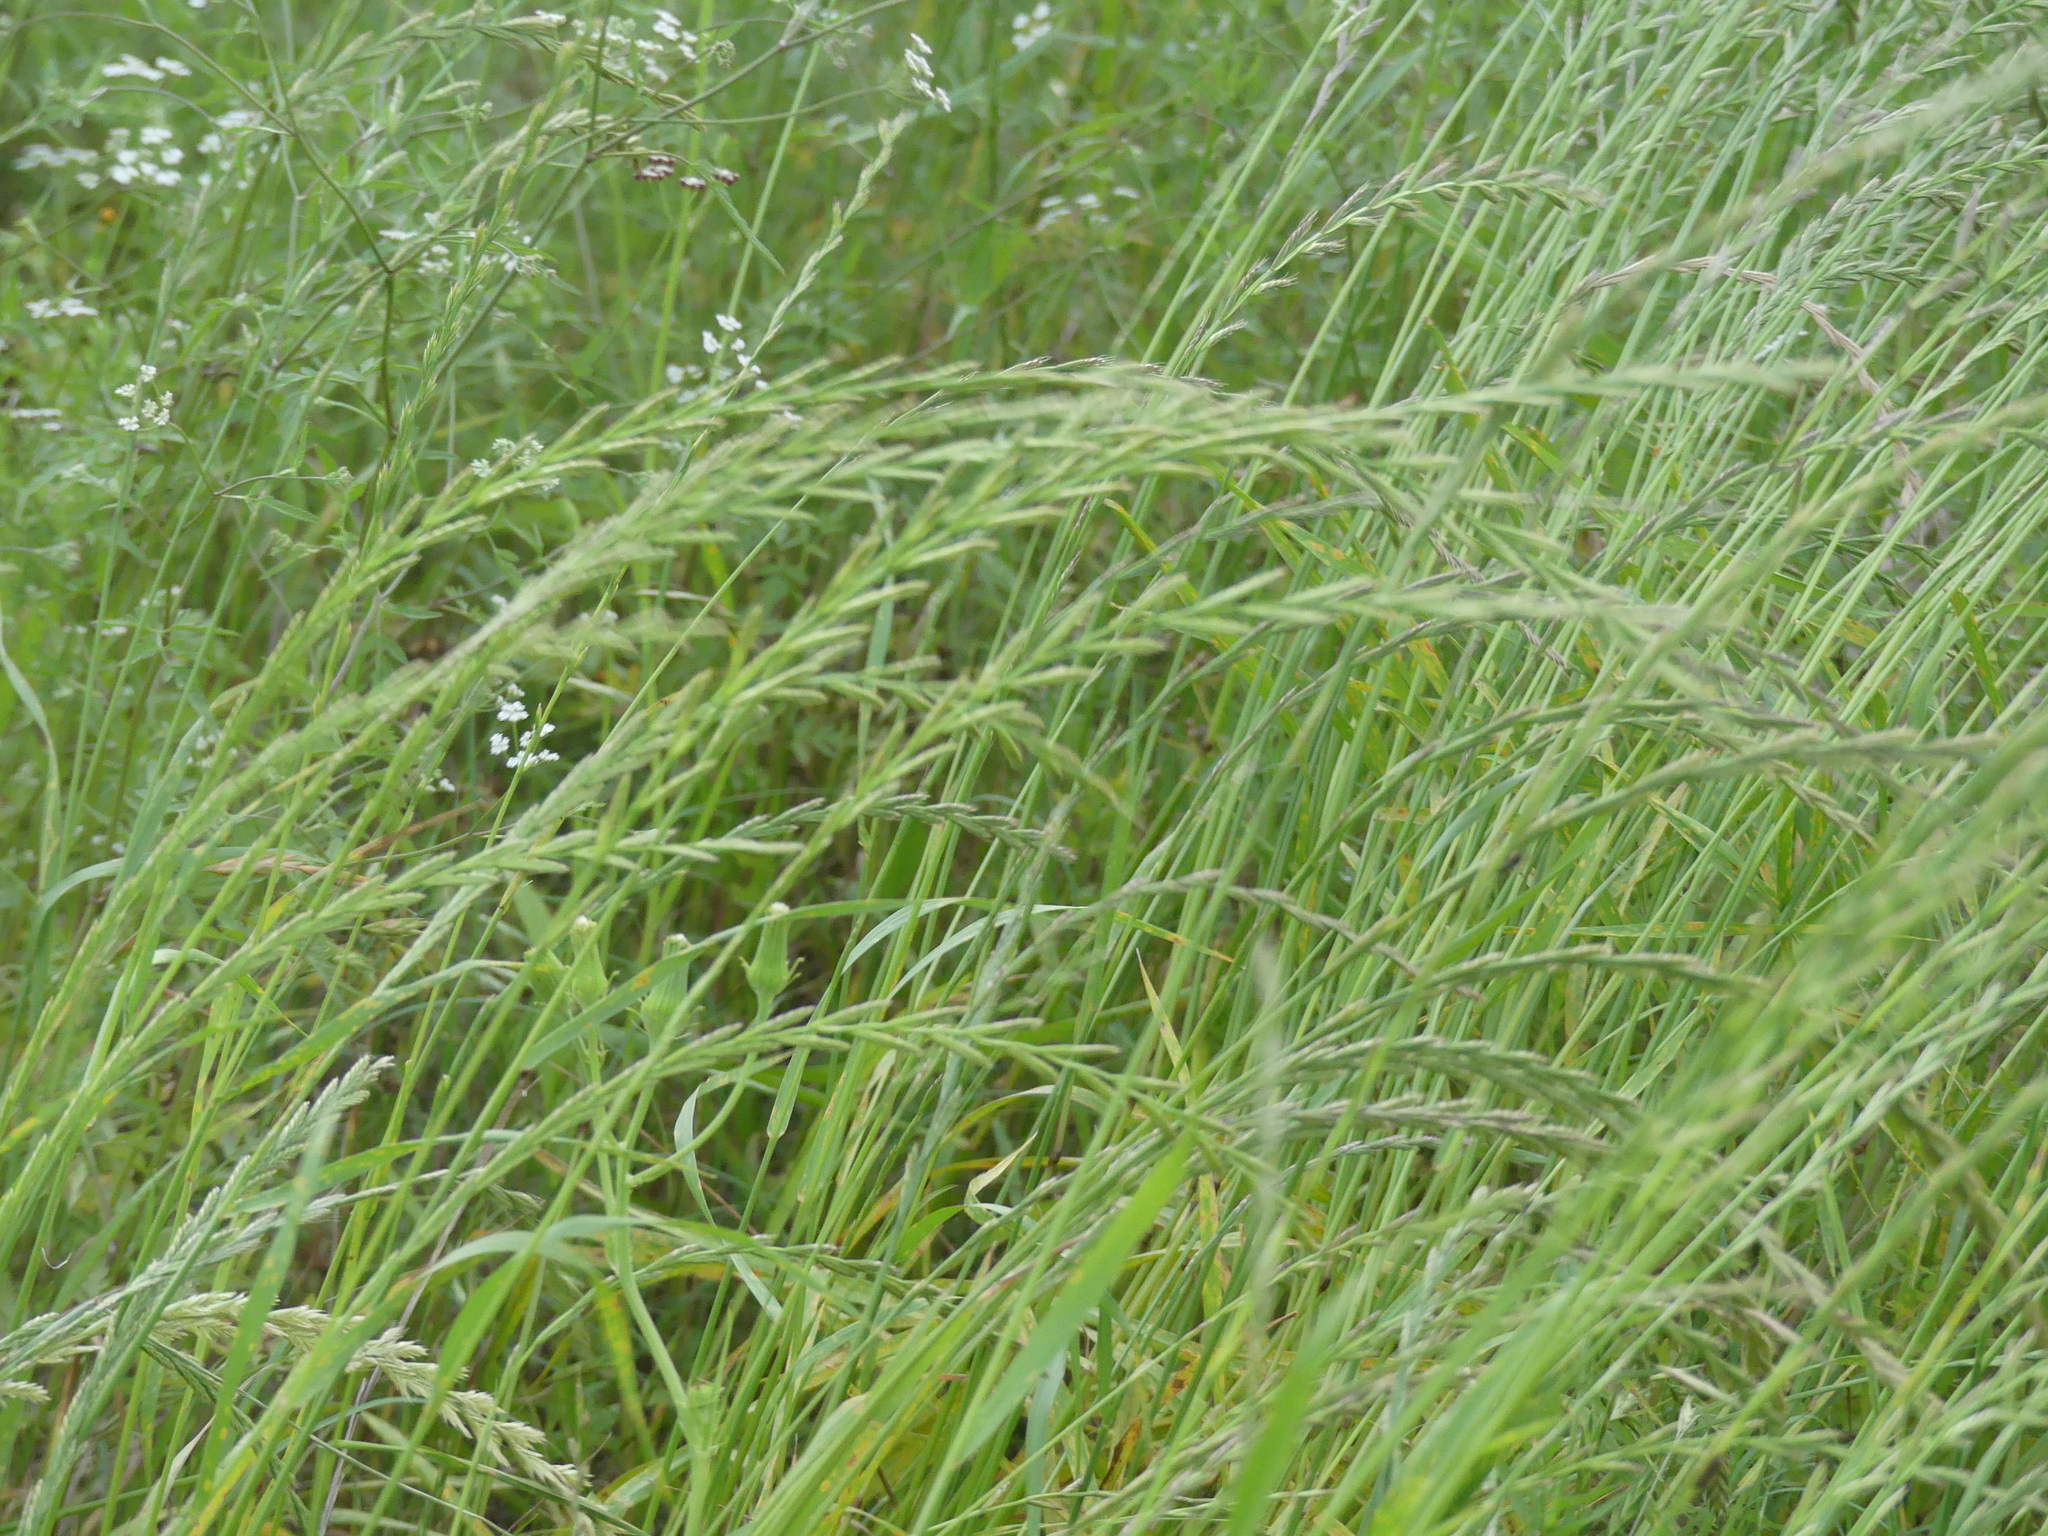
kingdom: Plantae
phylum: Tracheophyta
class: Liliopsida
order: Poales
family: Poaceae
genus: Lolium
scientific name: Lolium perenne
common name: Perennial ryegrass
